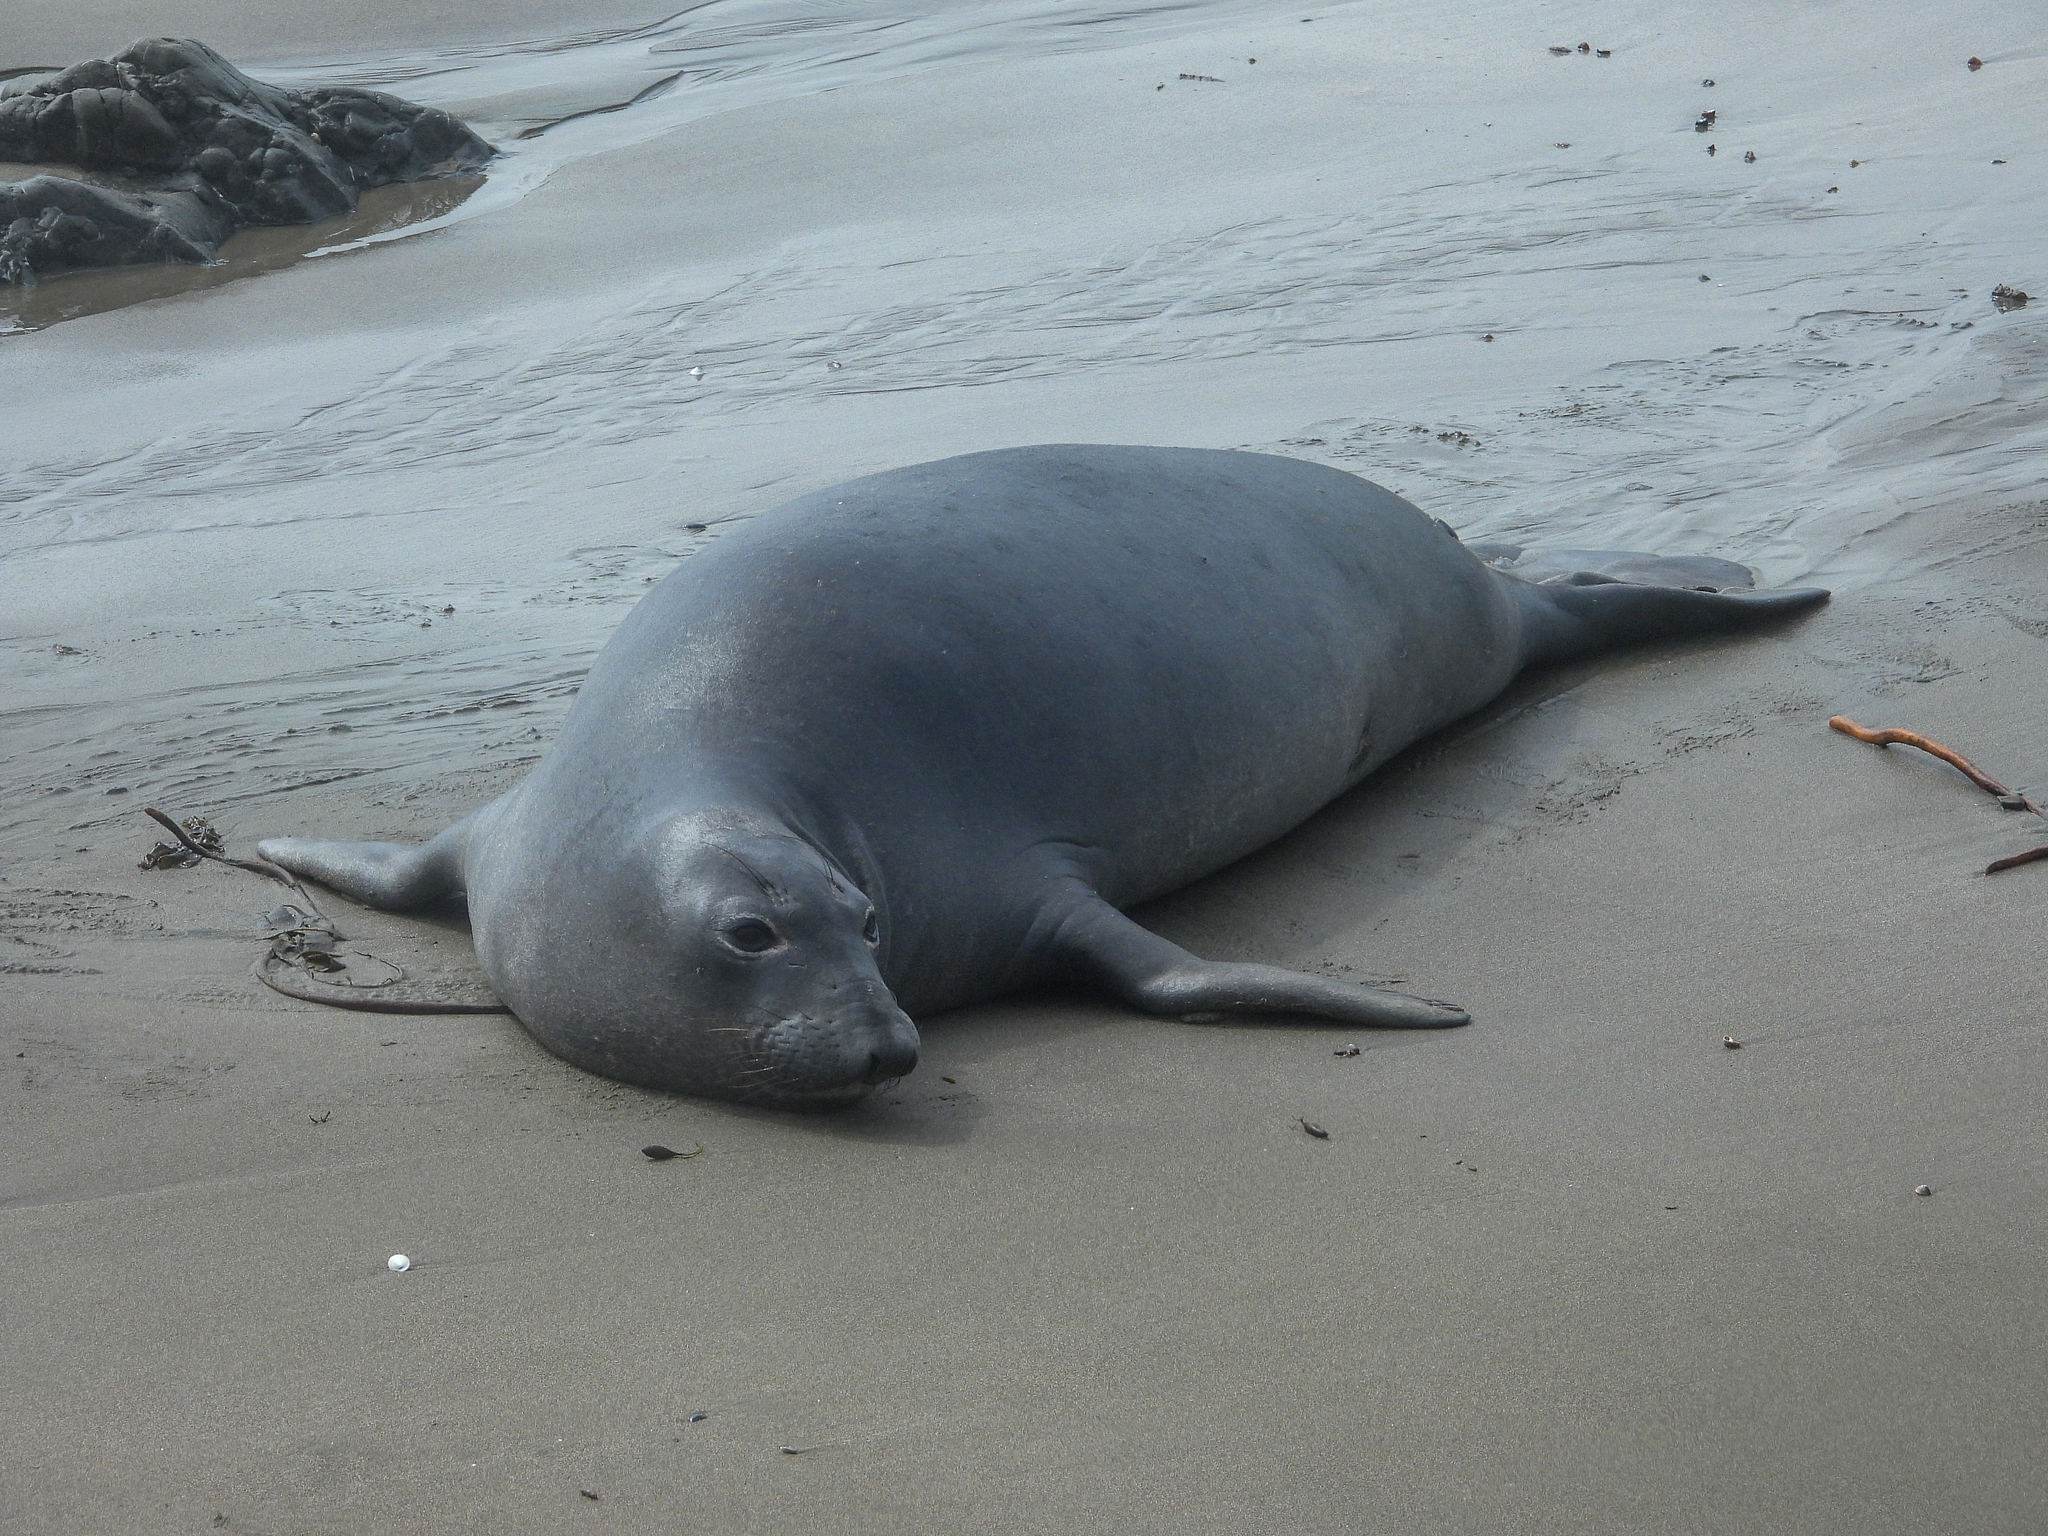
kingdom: Animalia
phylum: Chordata
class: Mammalia
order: Carnivora
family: Phocidae
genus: Mirounga
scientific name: Mirounga angustirostris
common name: Northern elephant seal
